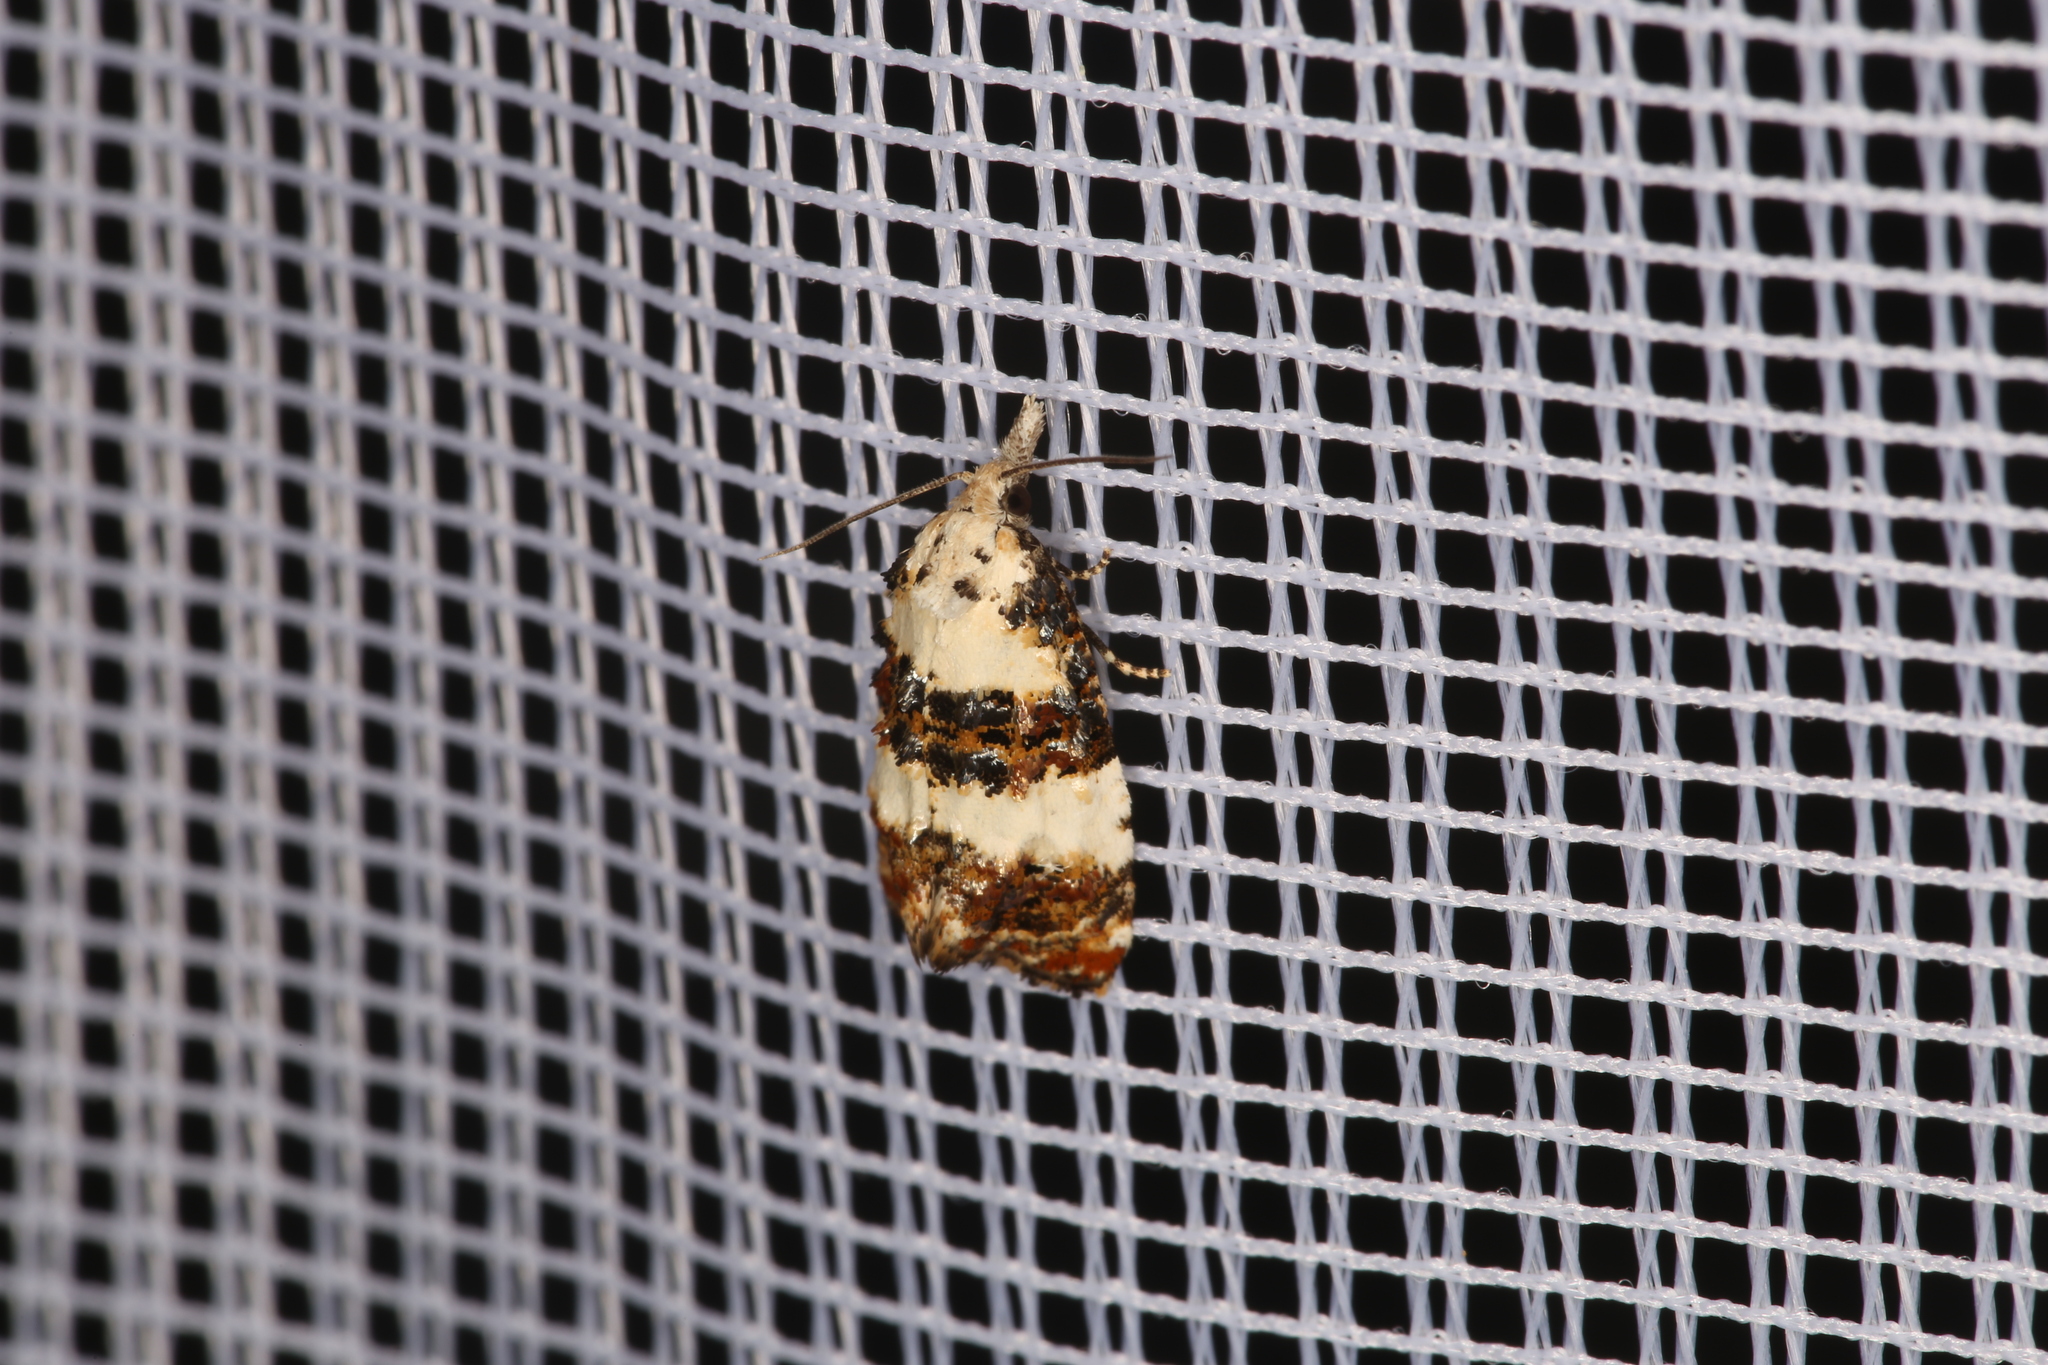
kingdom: Animalia
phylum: Arthropoda
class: Insecta
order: Lepidoptera
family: Tortricidae
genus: Phtheochroa
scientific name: Phtheochroa duponchelana
